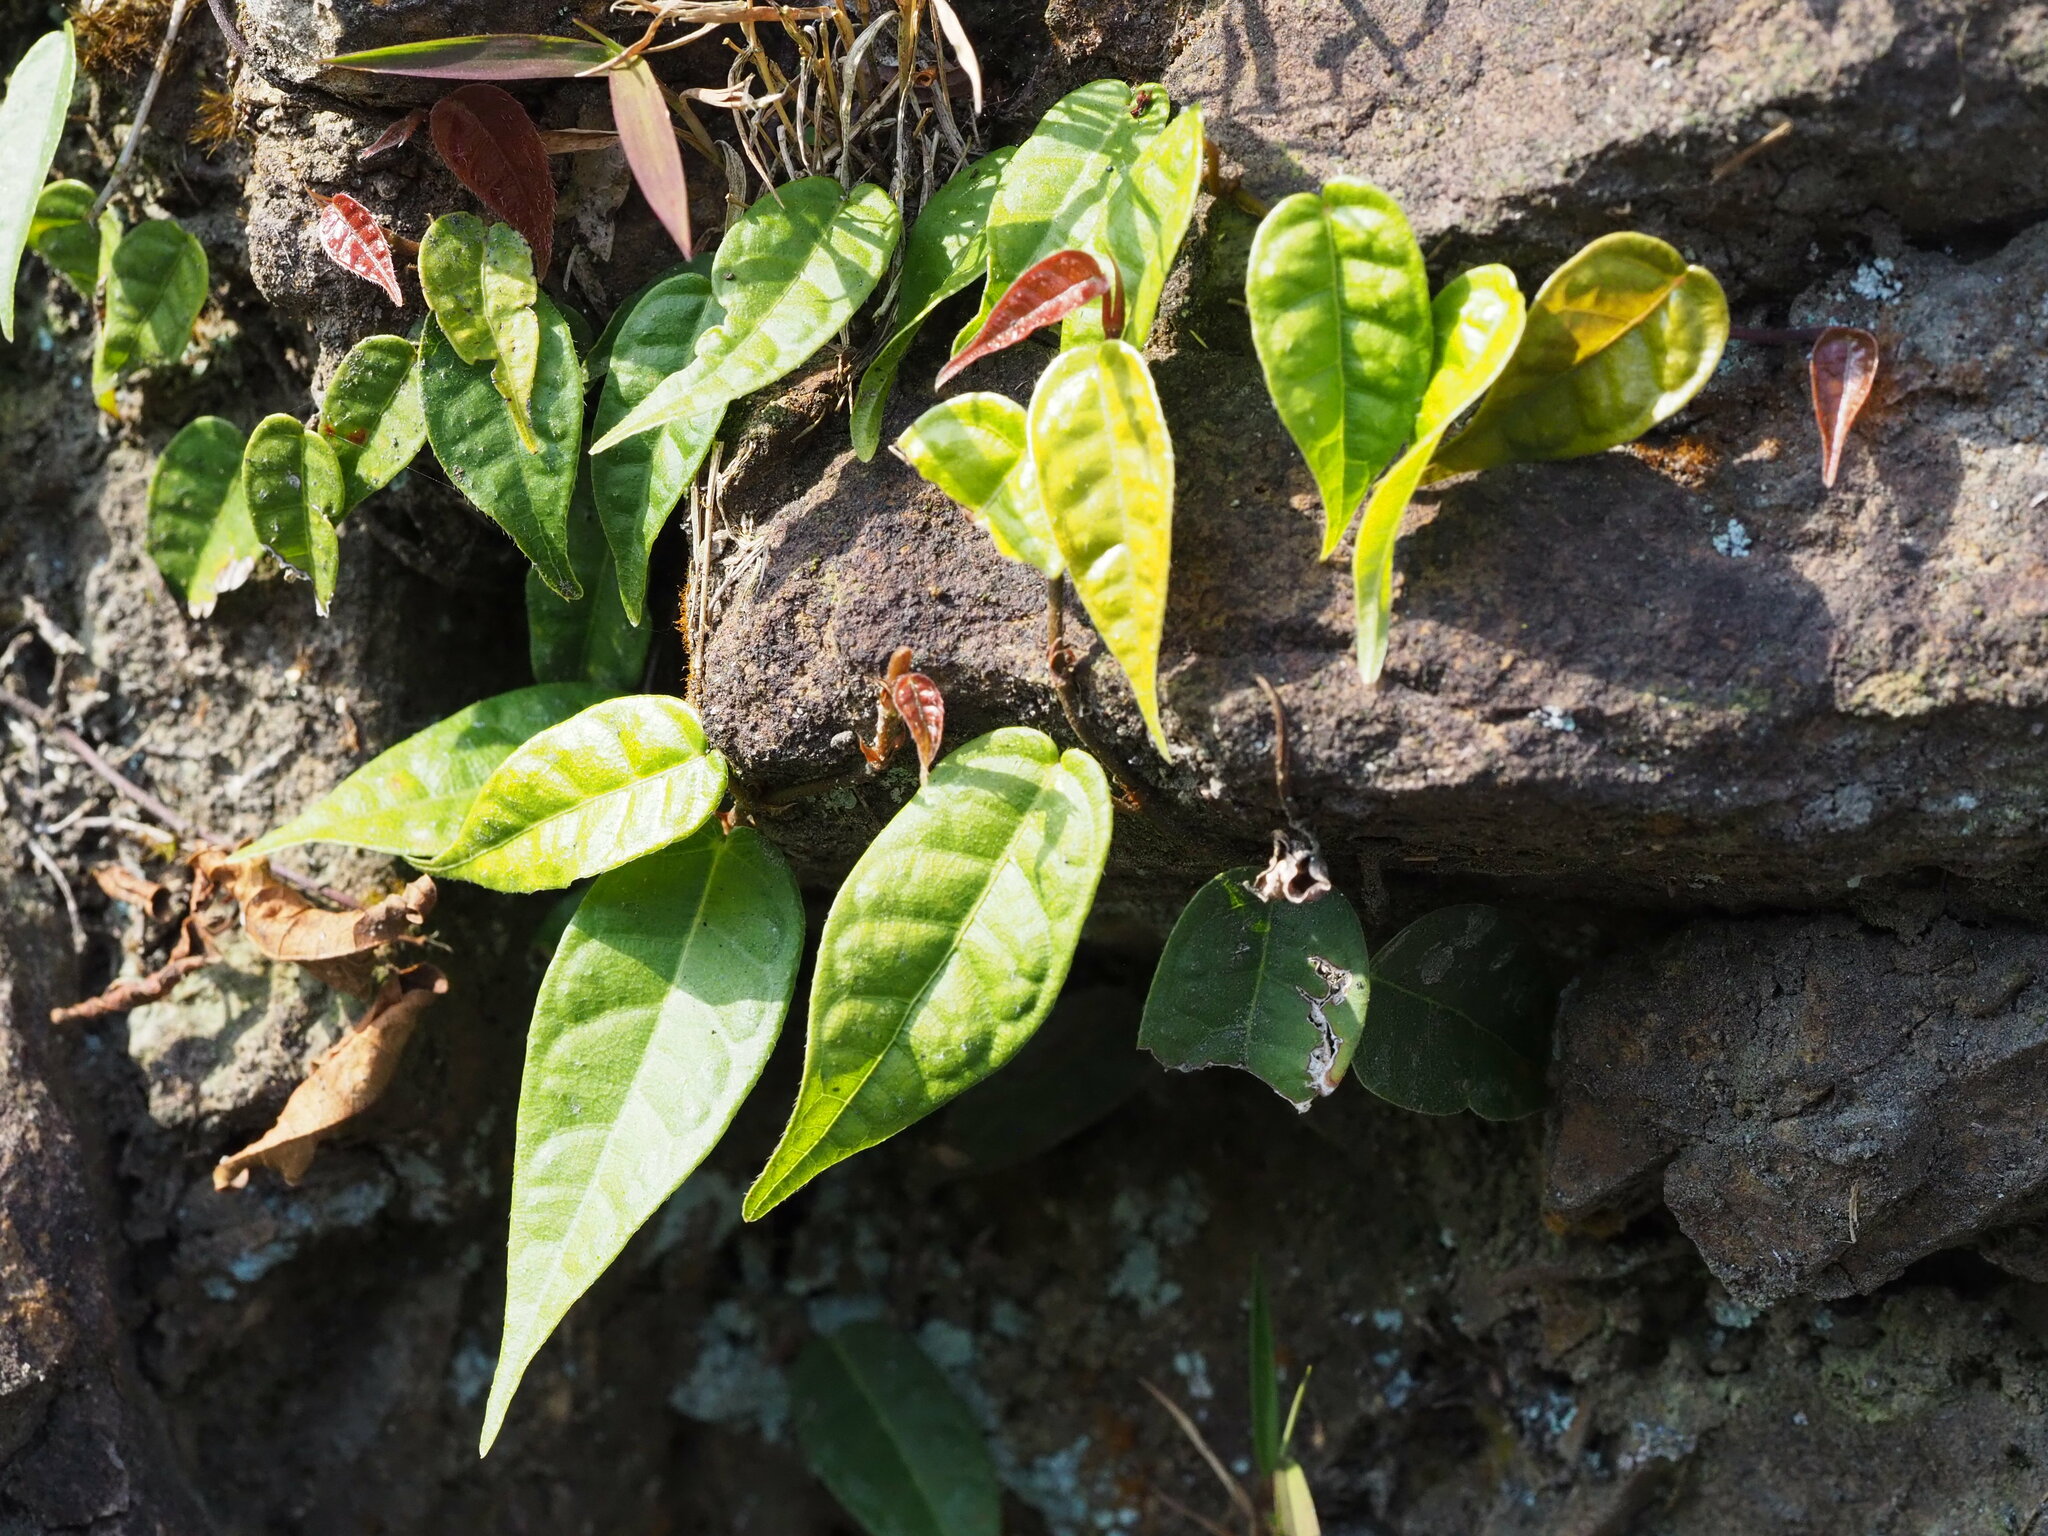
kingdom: Plantae
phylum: Tracheophyta
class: Magnoliopsida
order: Rosales
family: Moraceae
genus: Ficus
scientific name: Ficus sarmentosa
